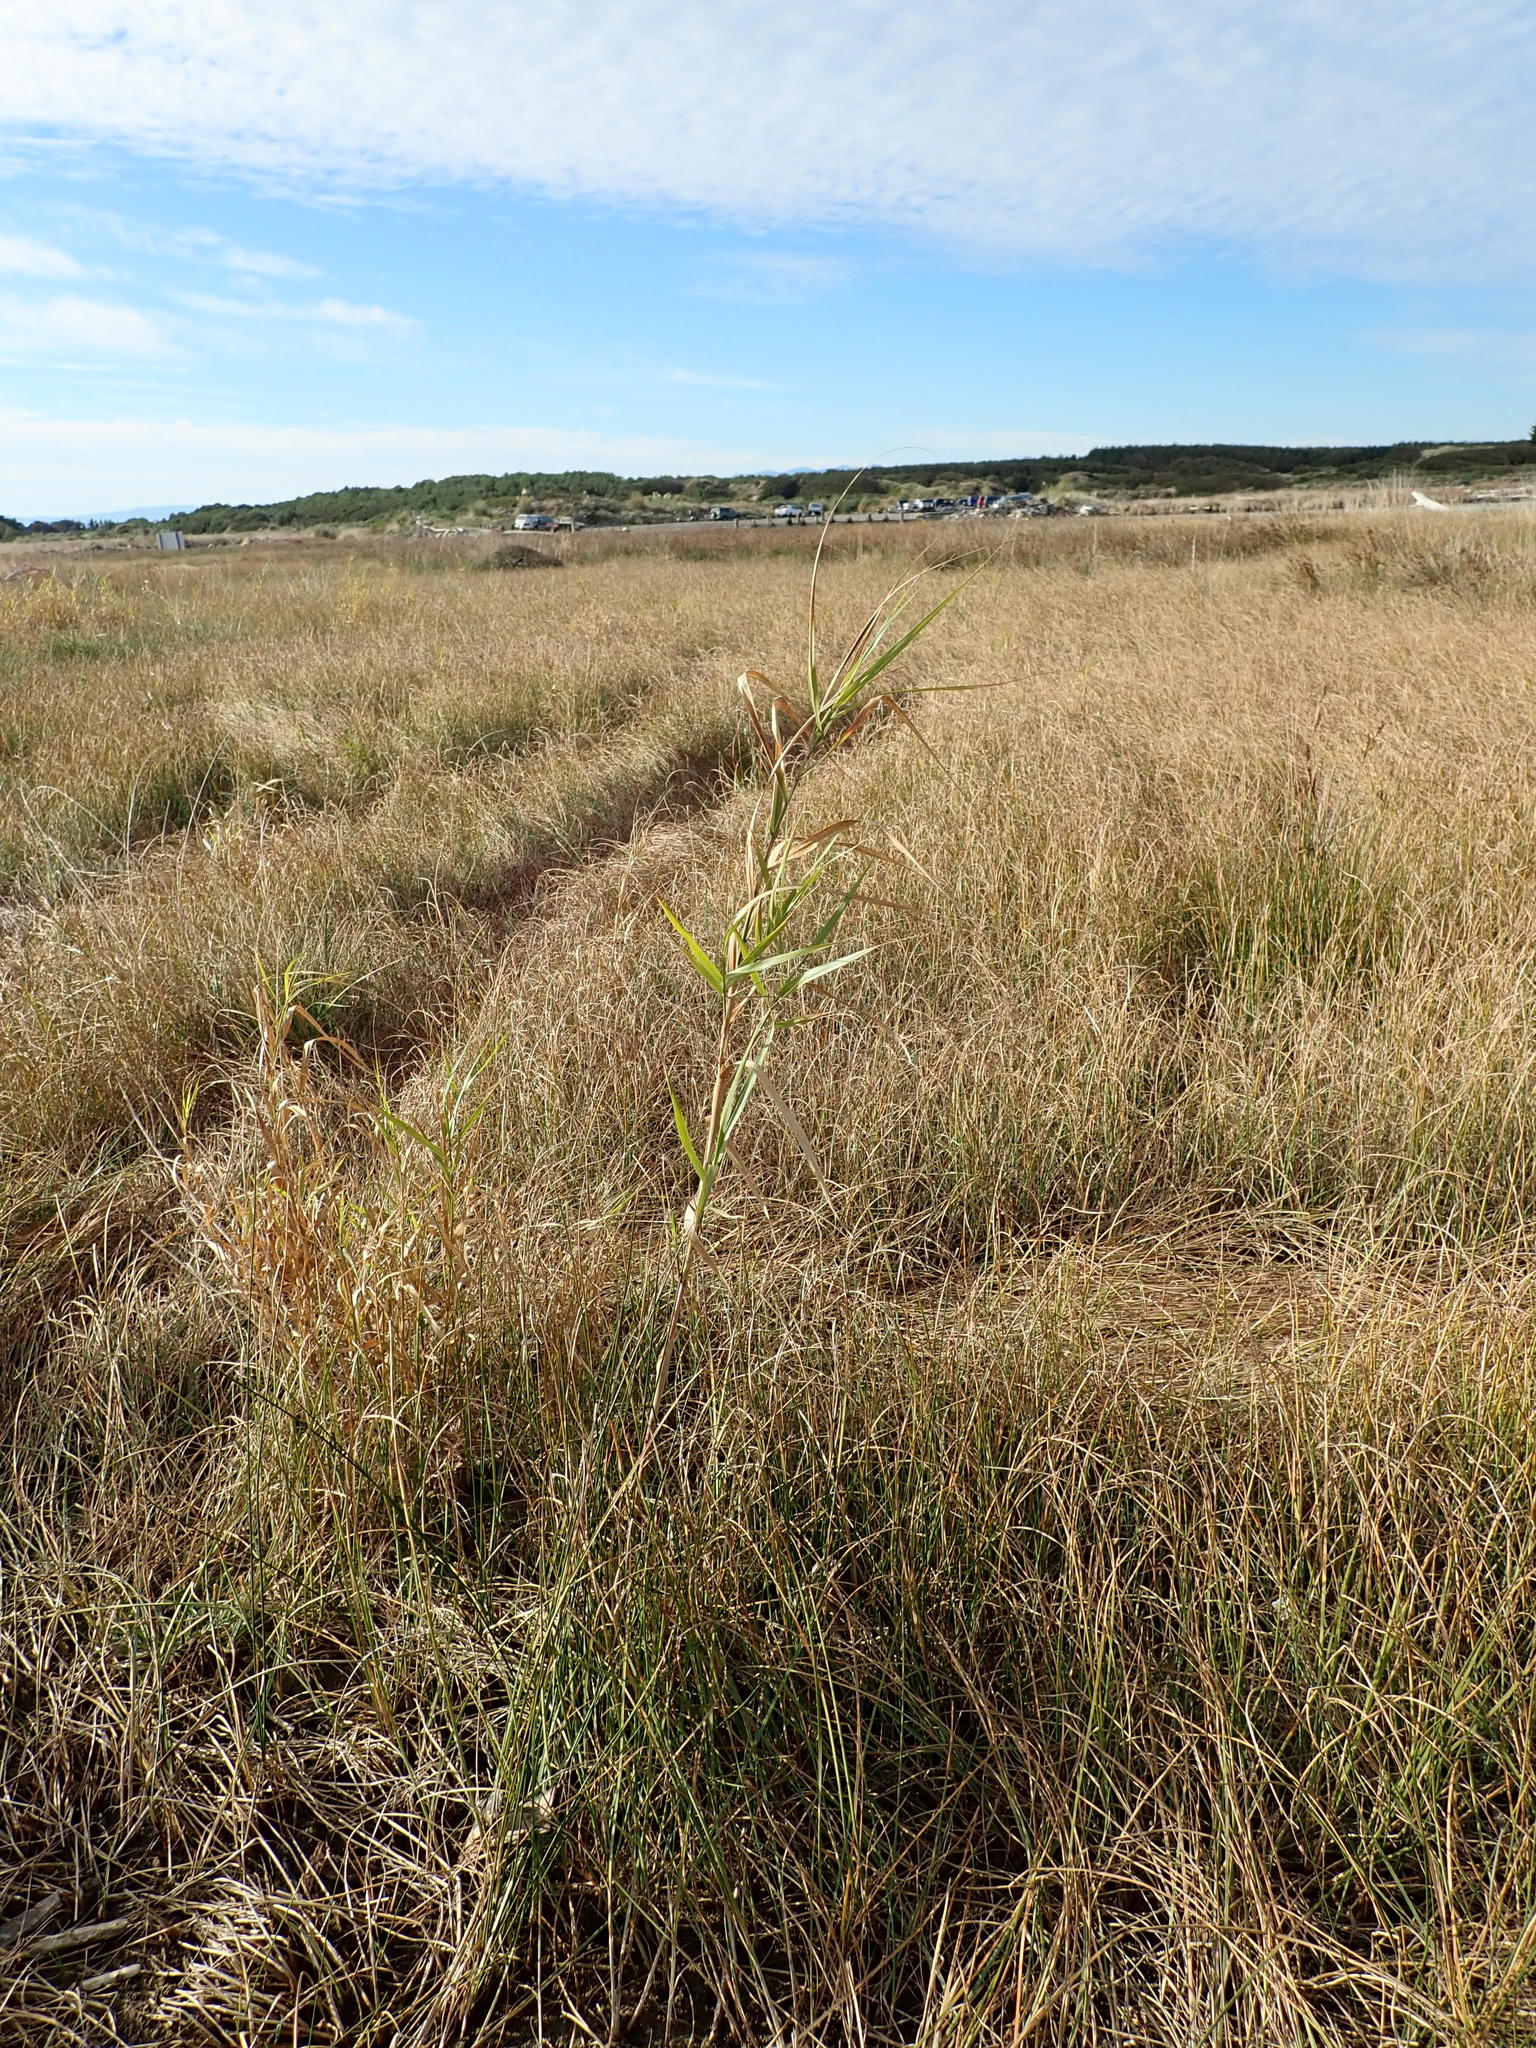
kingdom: Plantae
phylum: Tracheophyta
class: Liliopsida
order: Poales
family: Poaceae
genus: Phragmites
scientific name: Phragmites karka
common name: Tropical reed
